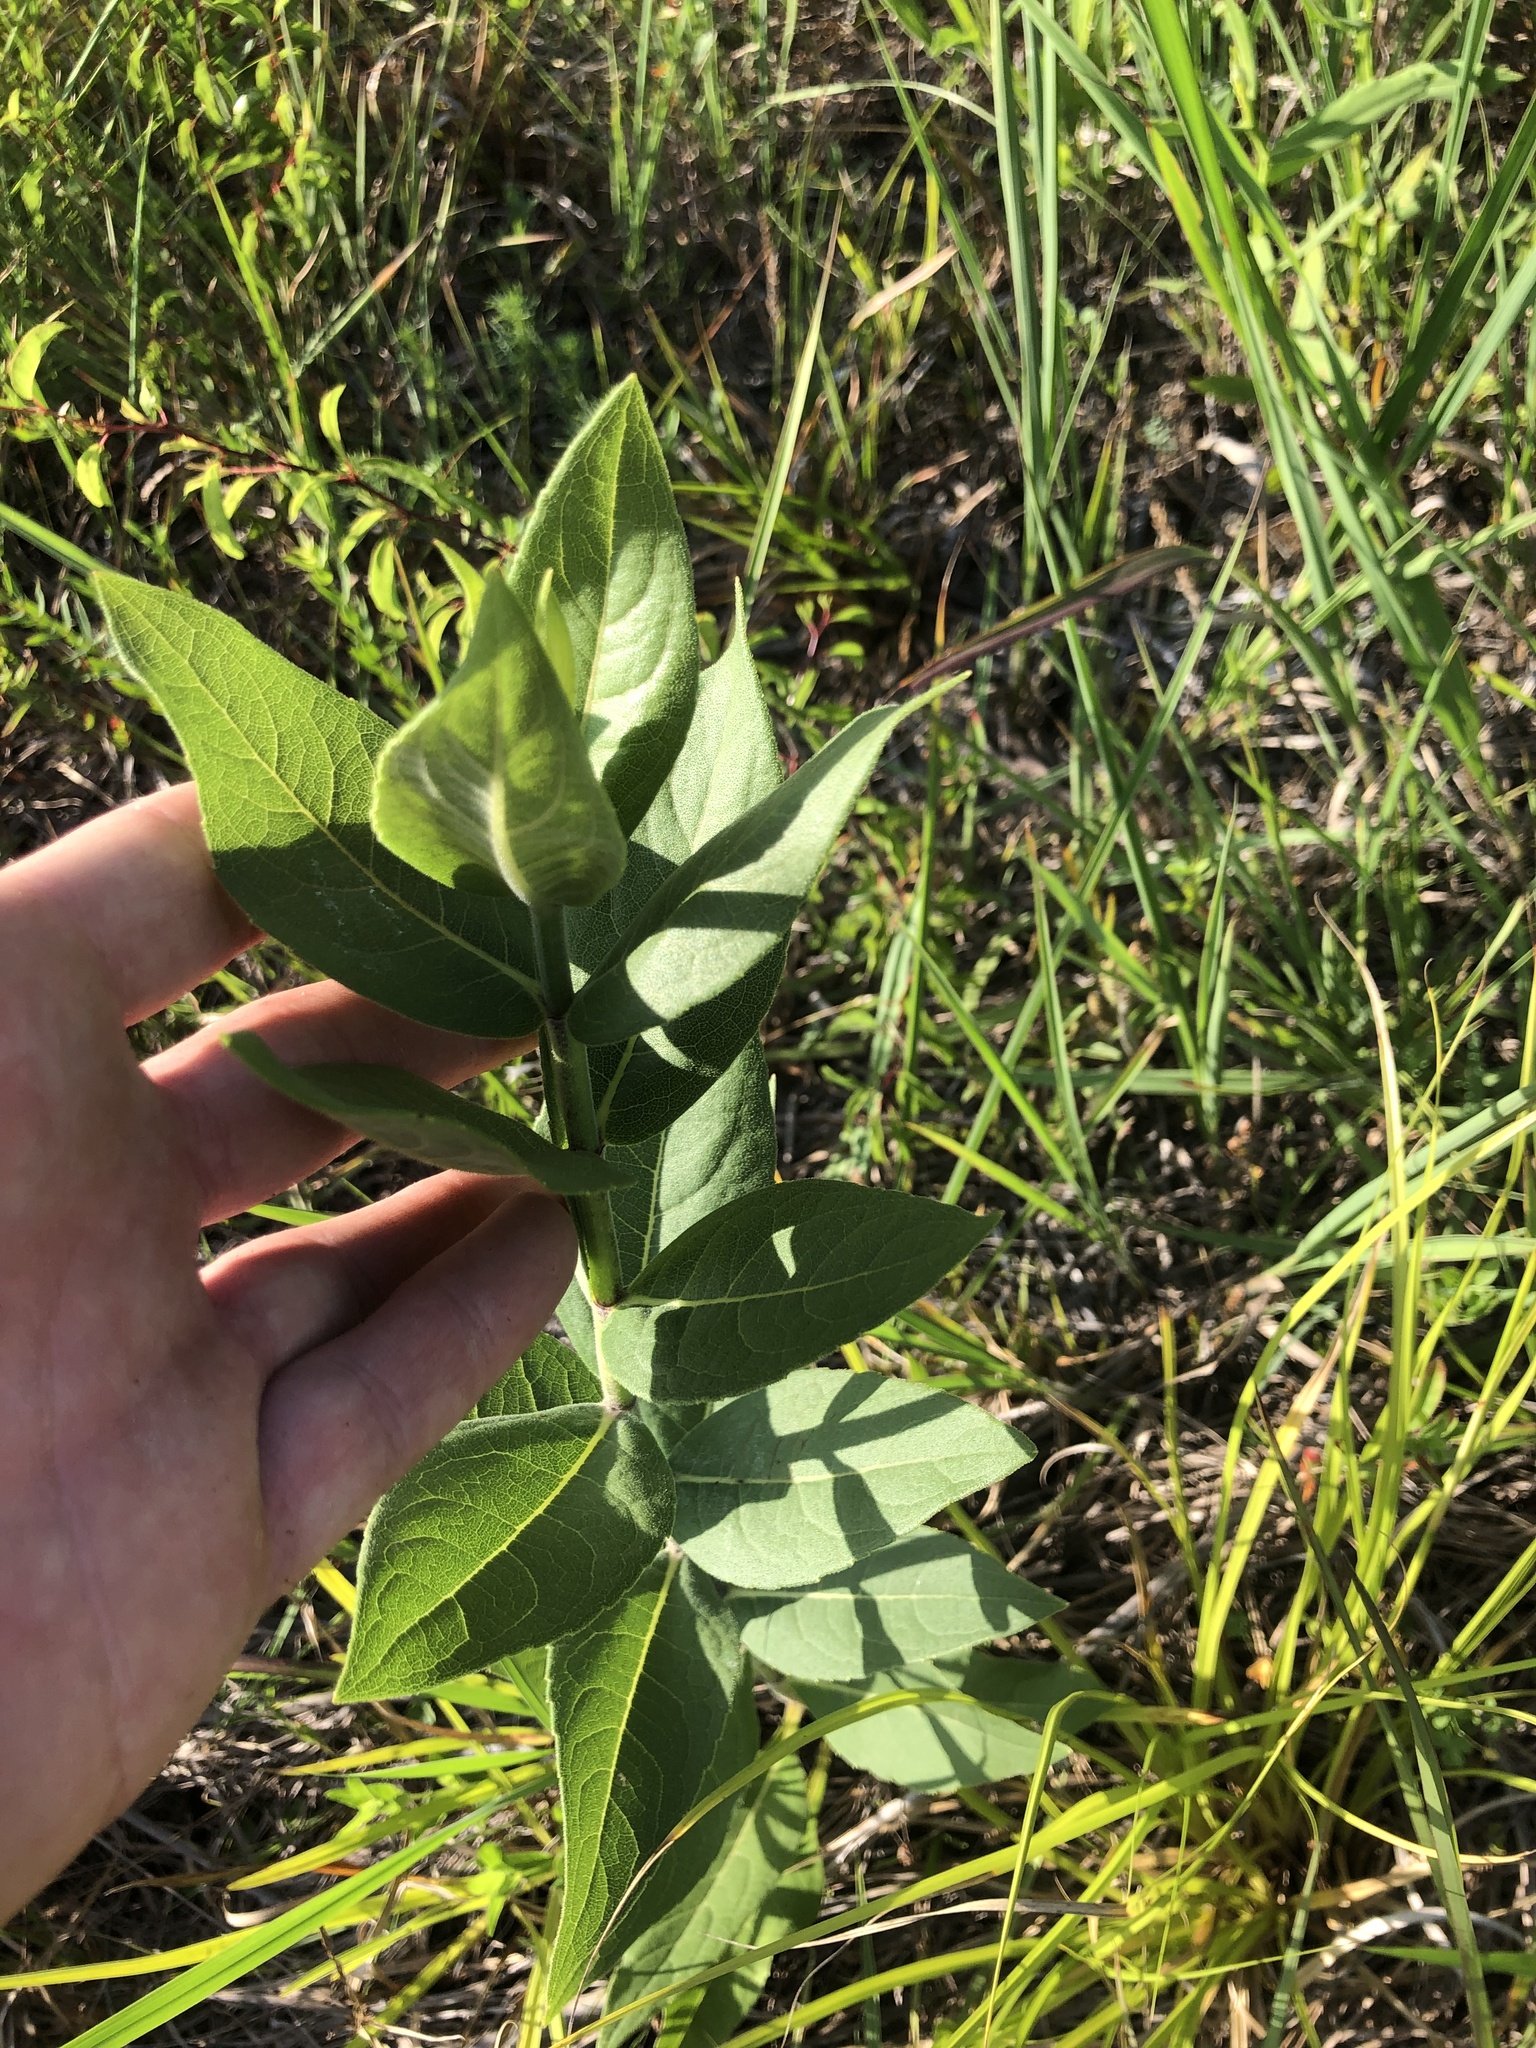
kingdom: Plantae
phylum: Tracheophyta
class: Magnoliopsida
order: Asterales
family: Asteraceae
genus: Silphium
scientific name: Silphium integrifolium
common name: Whole-leaf rosinweed
